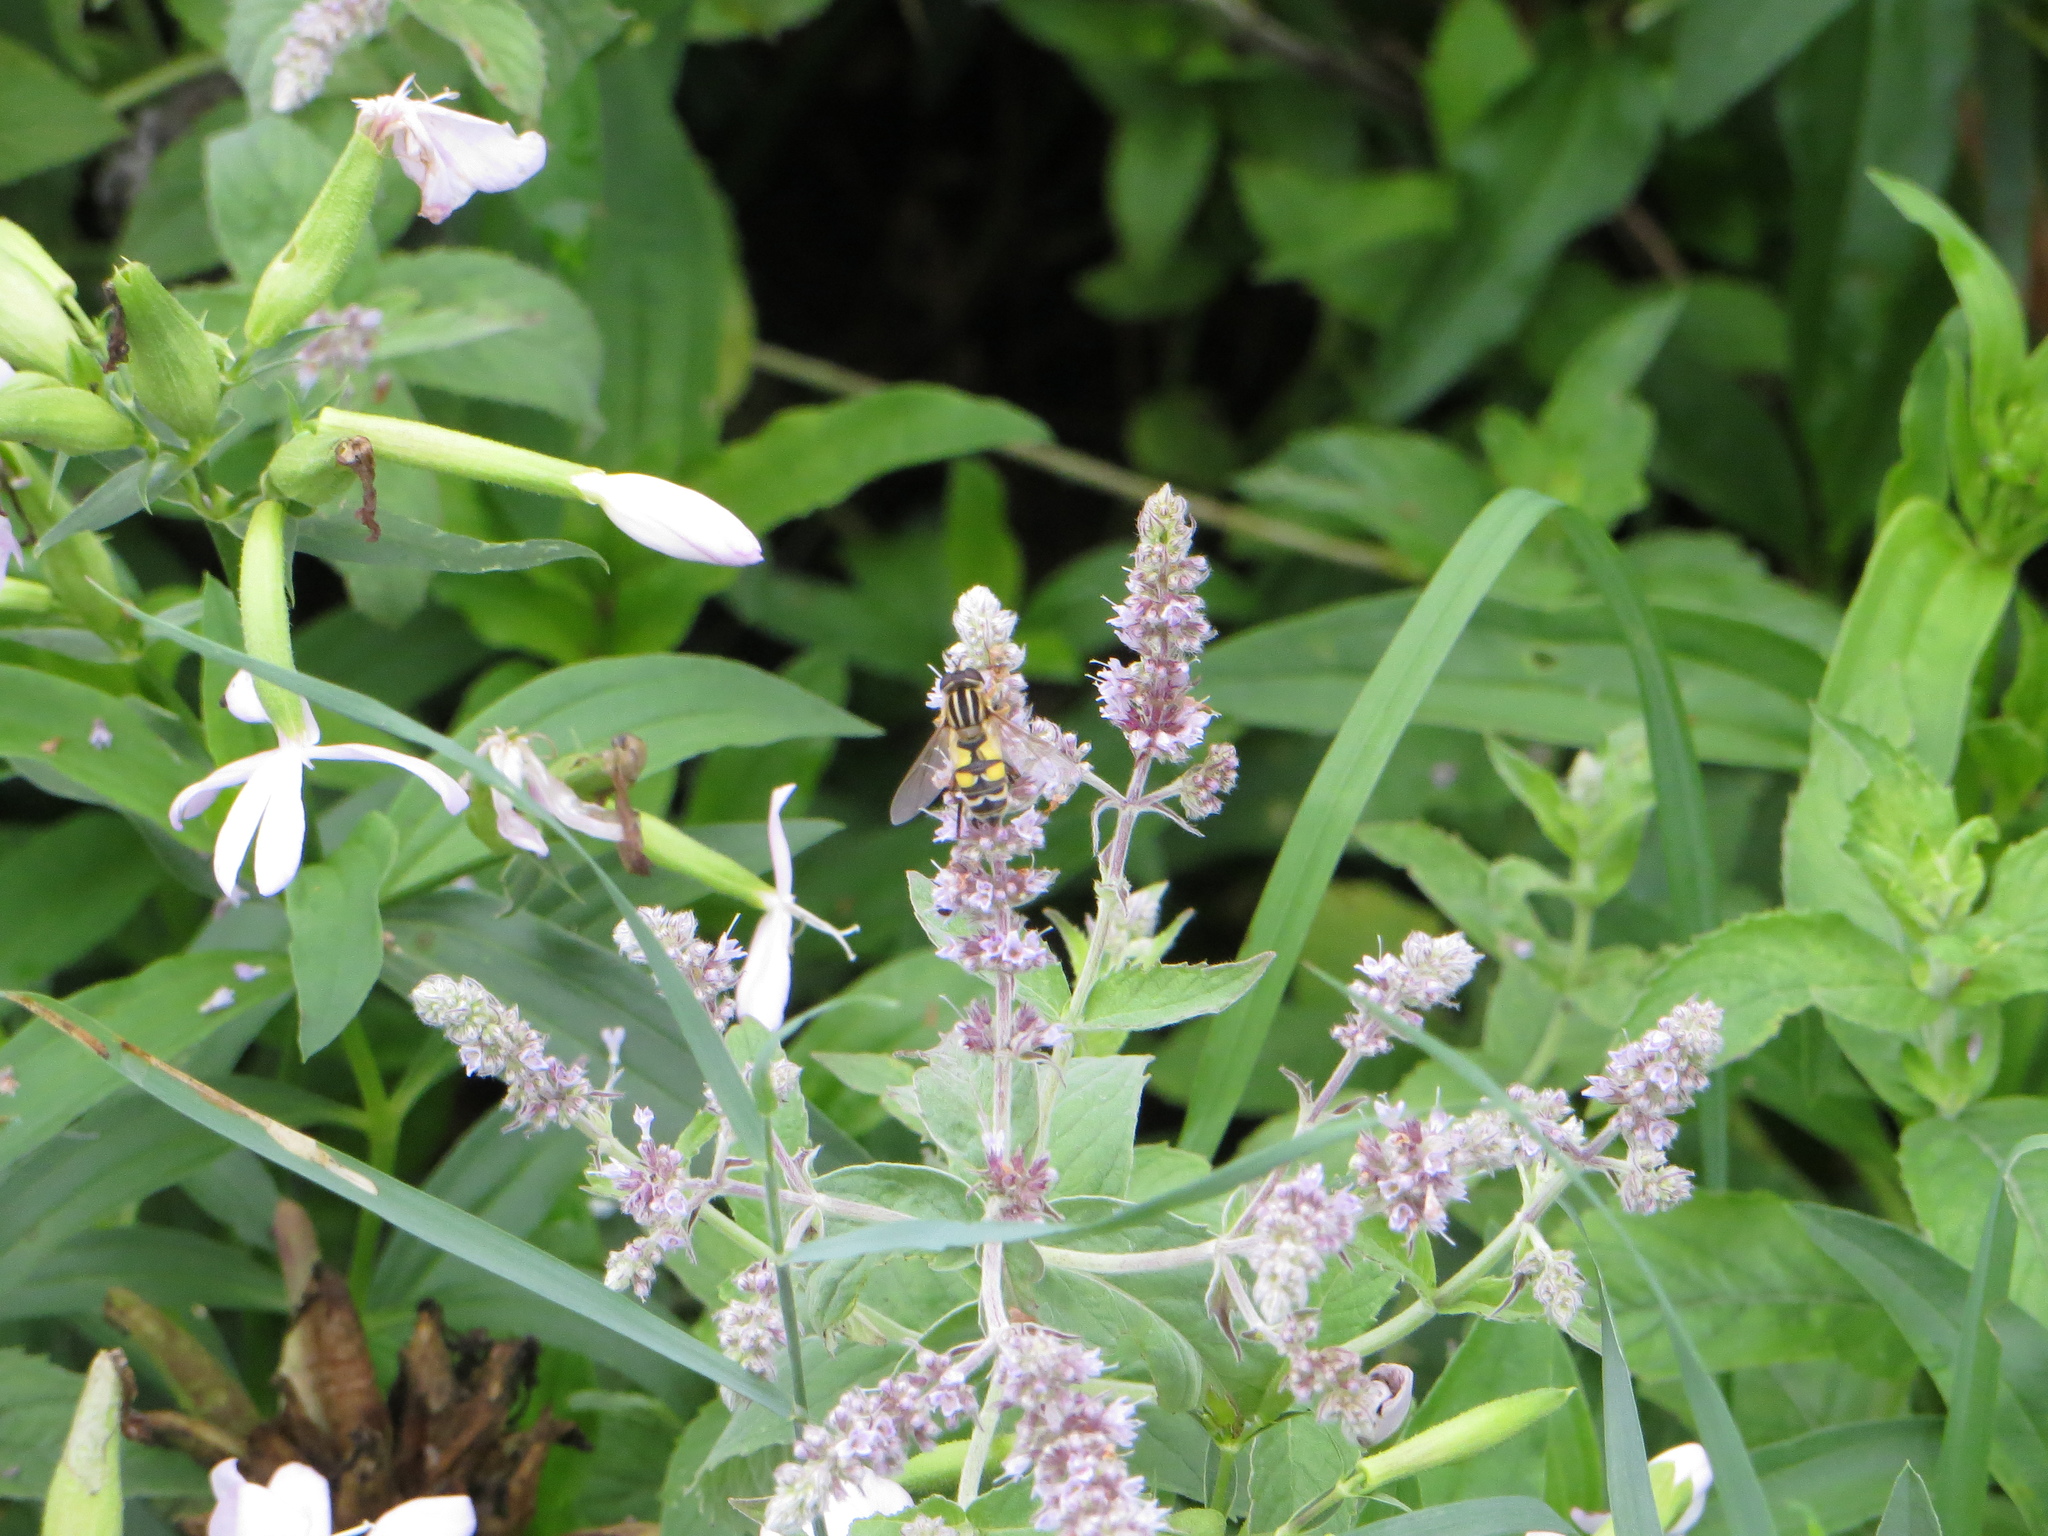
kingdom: Animalia
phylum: Arthropoda
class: Insecta
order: Diptera
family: Syrphidae
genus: Helophilus
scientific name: Helophilus trivittatus
